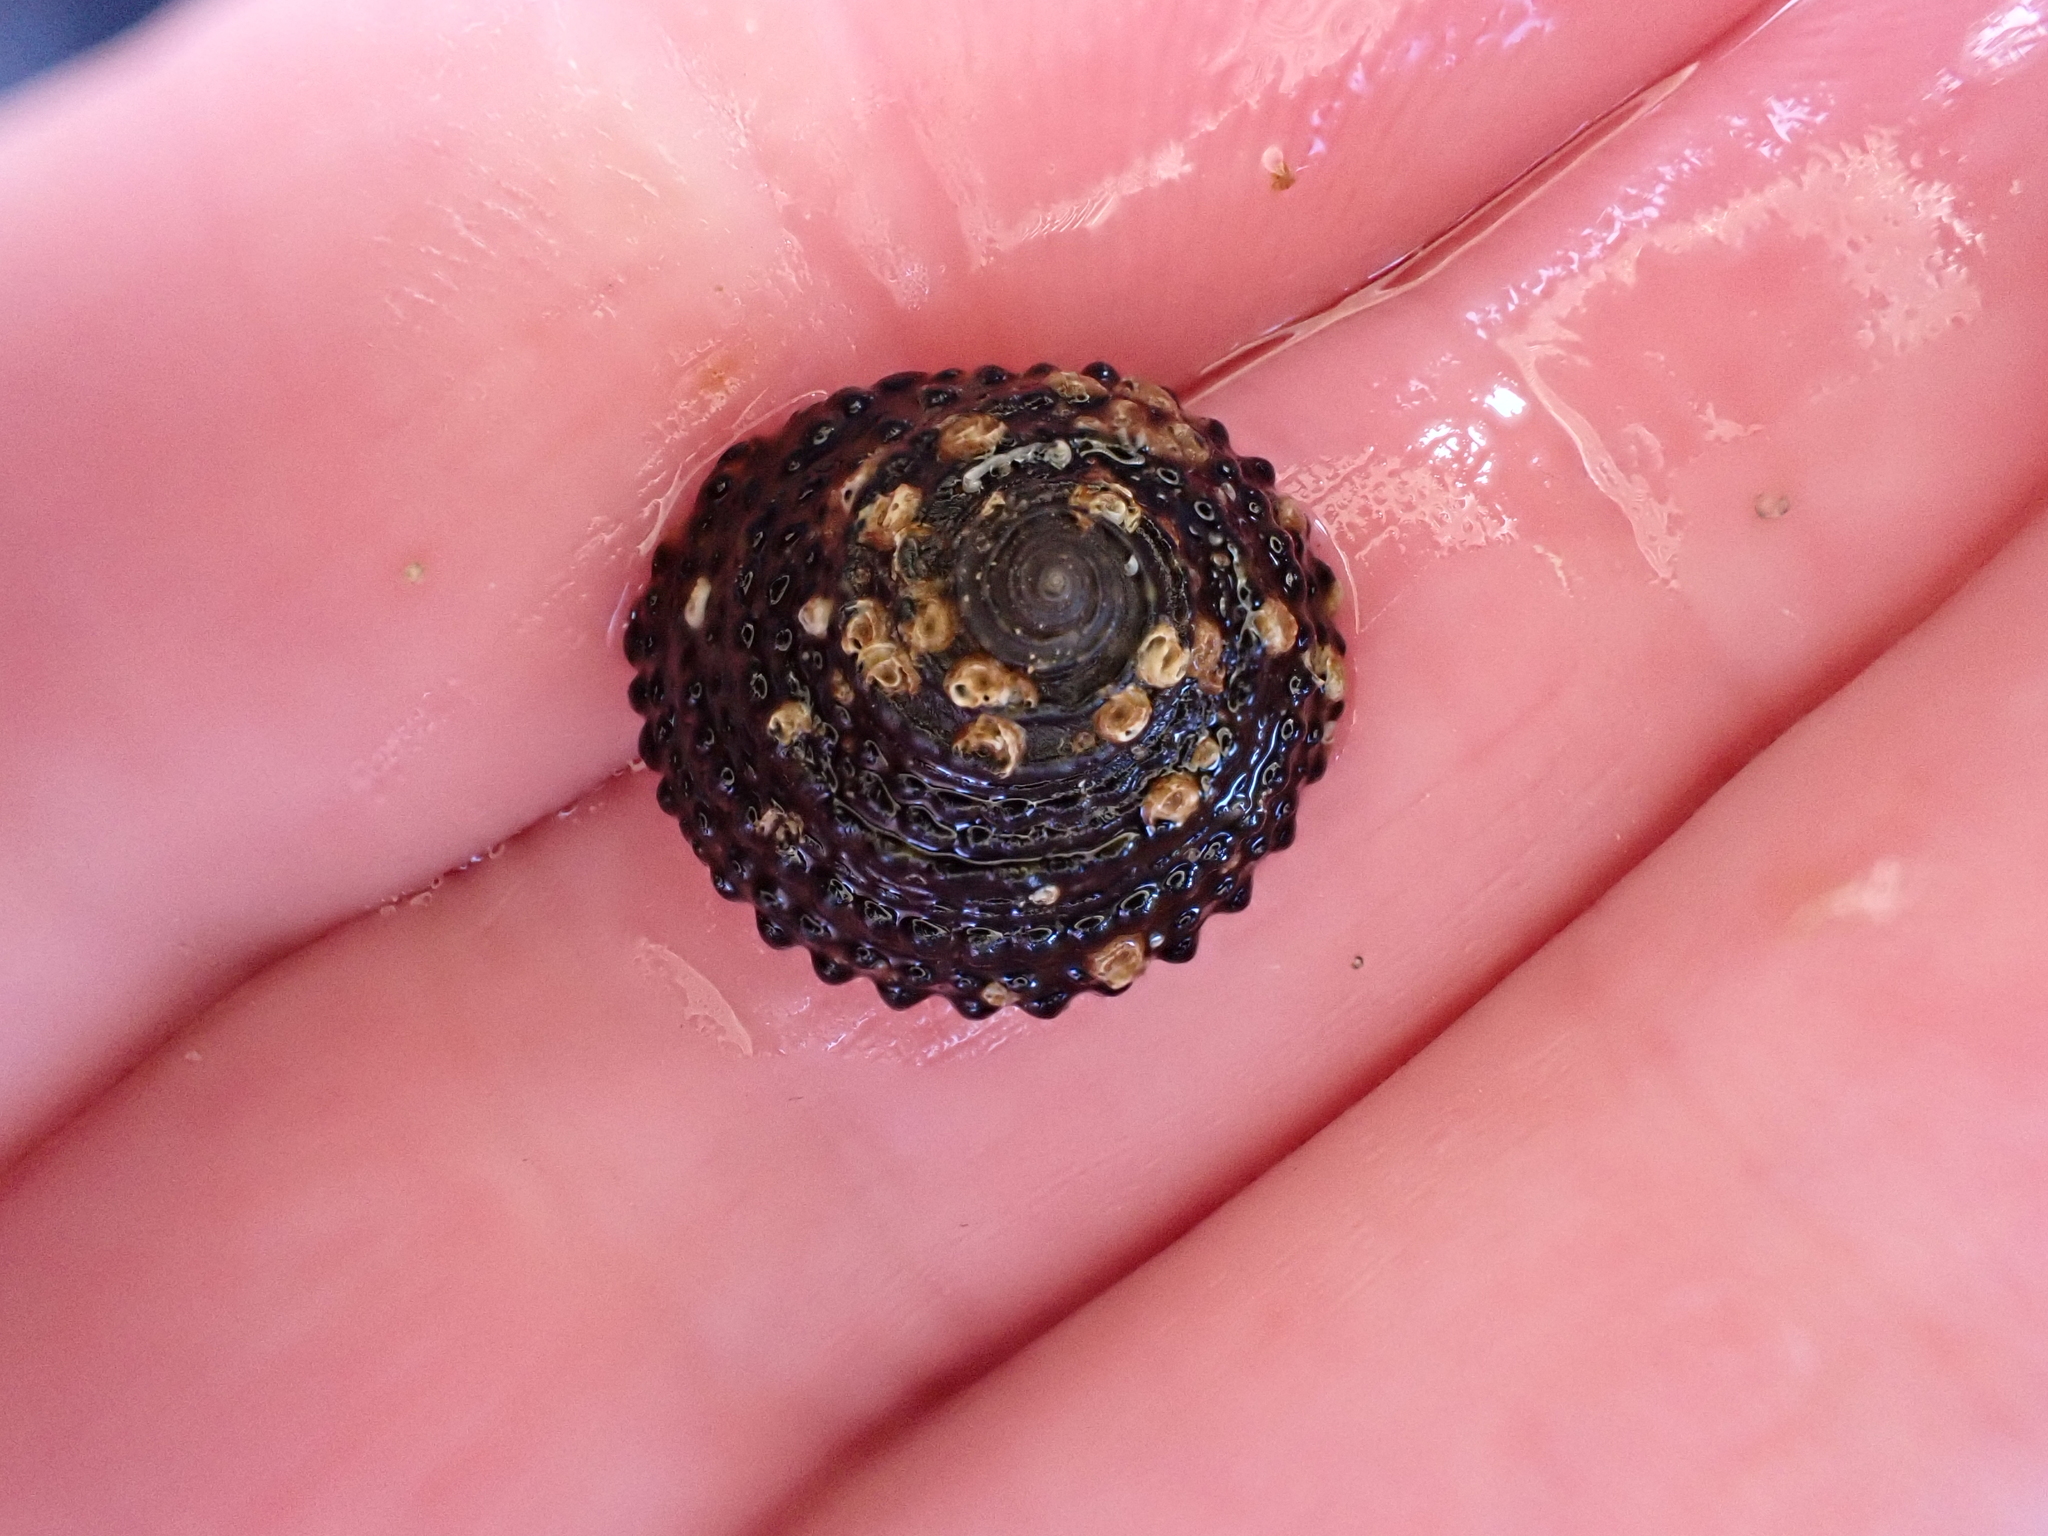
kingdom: Animalia
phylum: Mollusca
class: Gastropoda
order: Trochida
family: Trochidae
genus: Diloma
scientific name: Diloma bicanaliculatum
